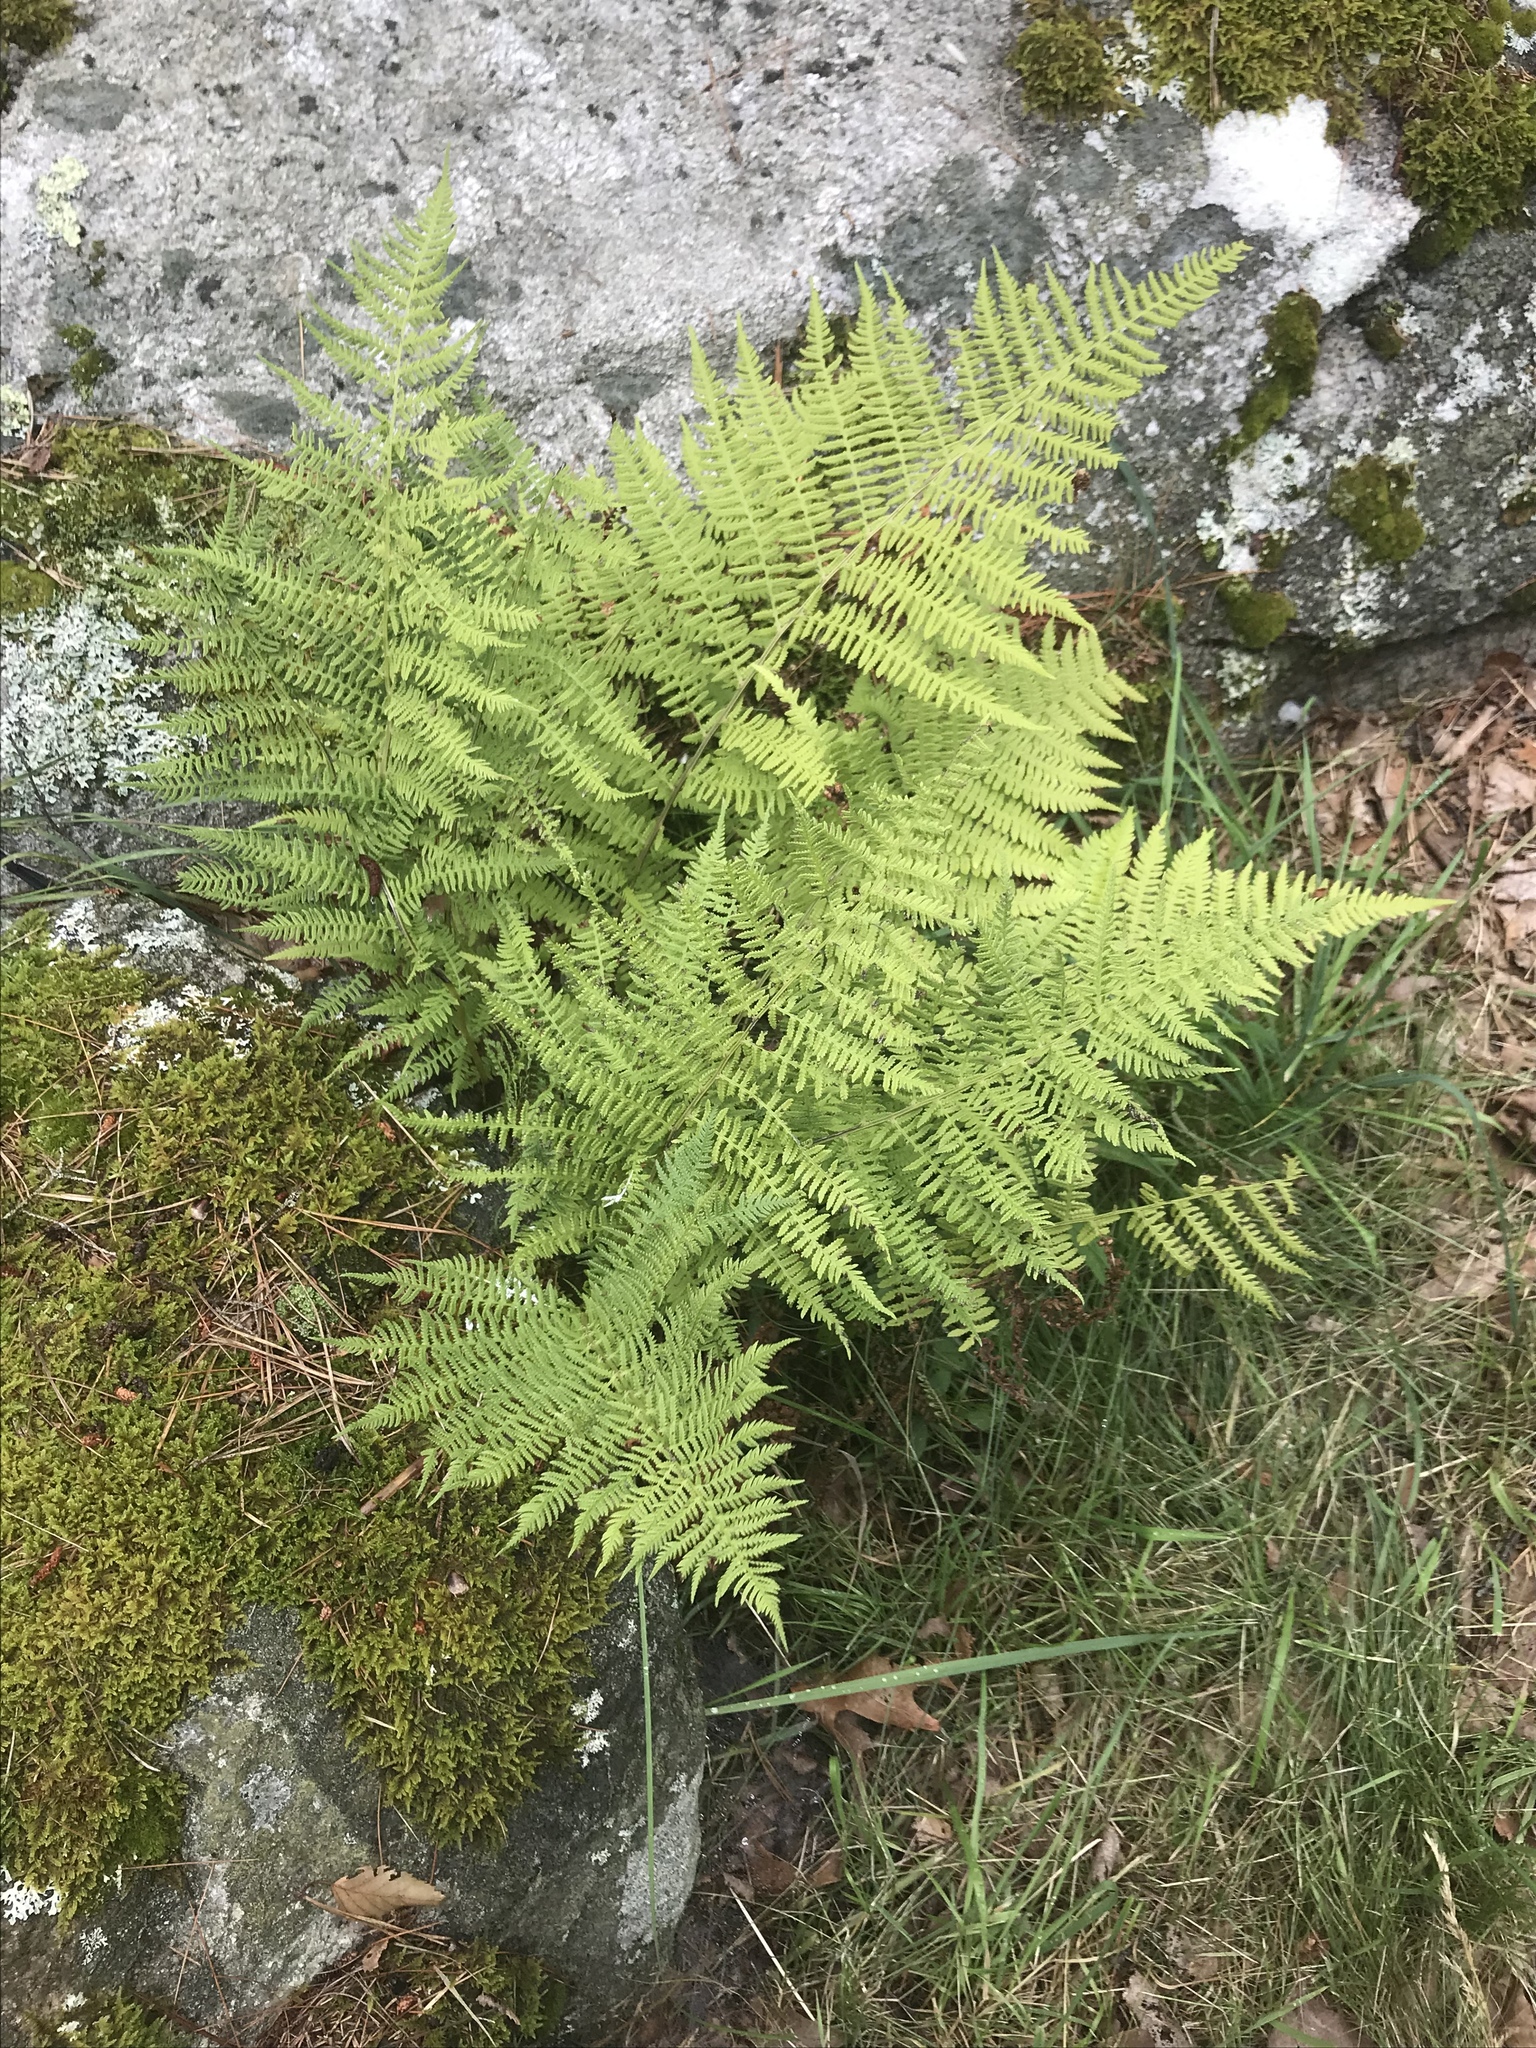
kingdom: Plantae
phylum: Tracheophyta
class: Polypodiopsida
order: Polypodiales
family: Athyriaceae
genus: Athyrium
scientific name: Athyrium angustum
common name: Northern lady fern
